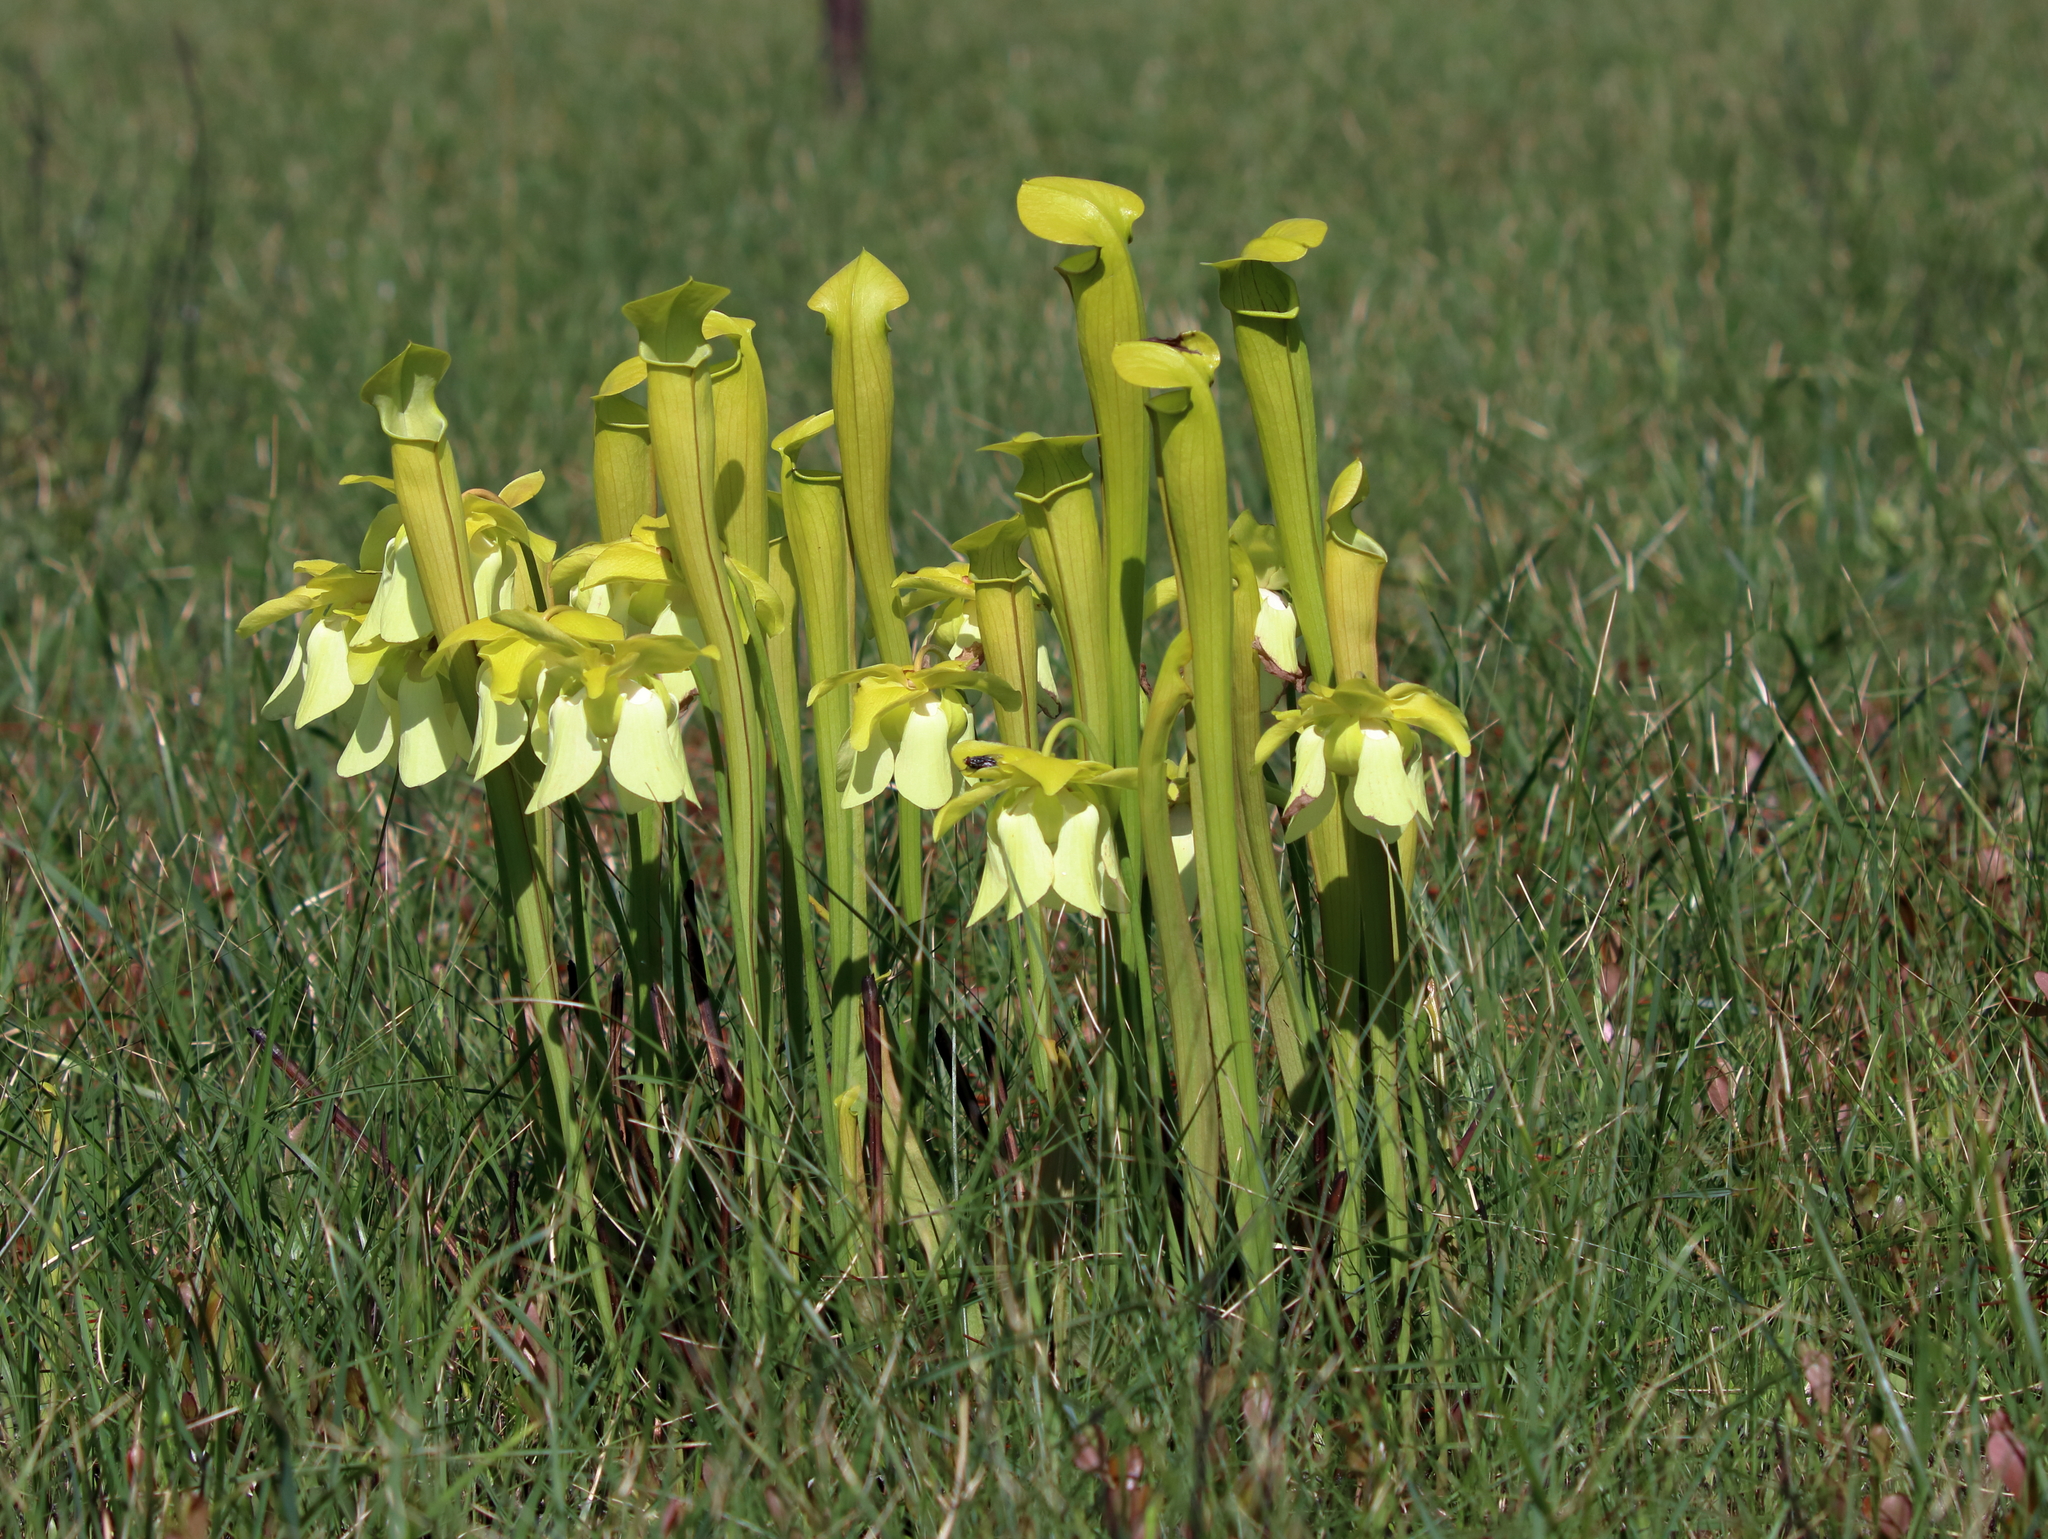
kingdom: Plantae
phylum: Tracheophyta
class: Magnoliopsida
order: Ericales
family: Sarraceniaceae
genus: Sarracenia
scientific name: Sarracenia alata
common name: Yellow trumpets
